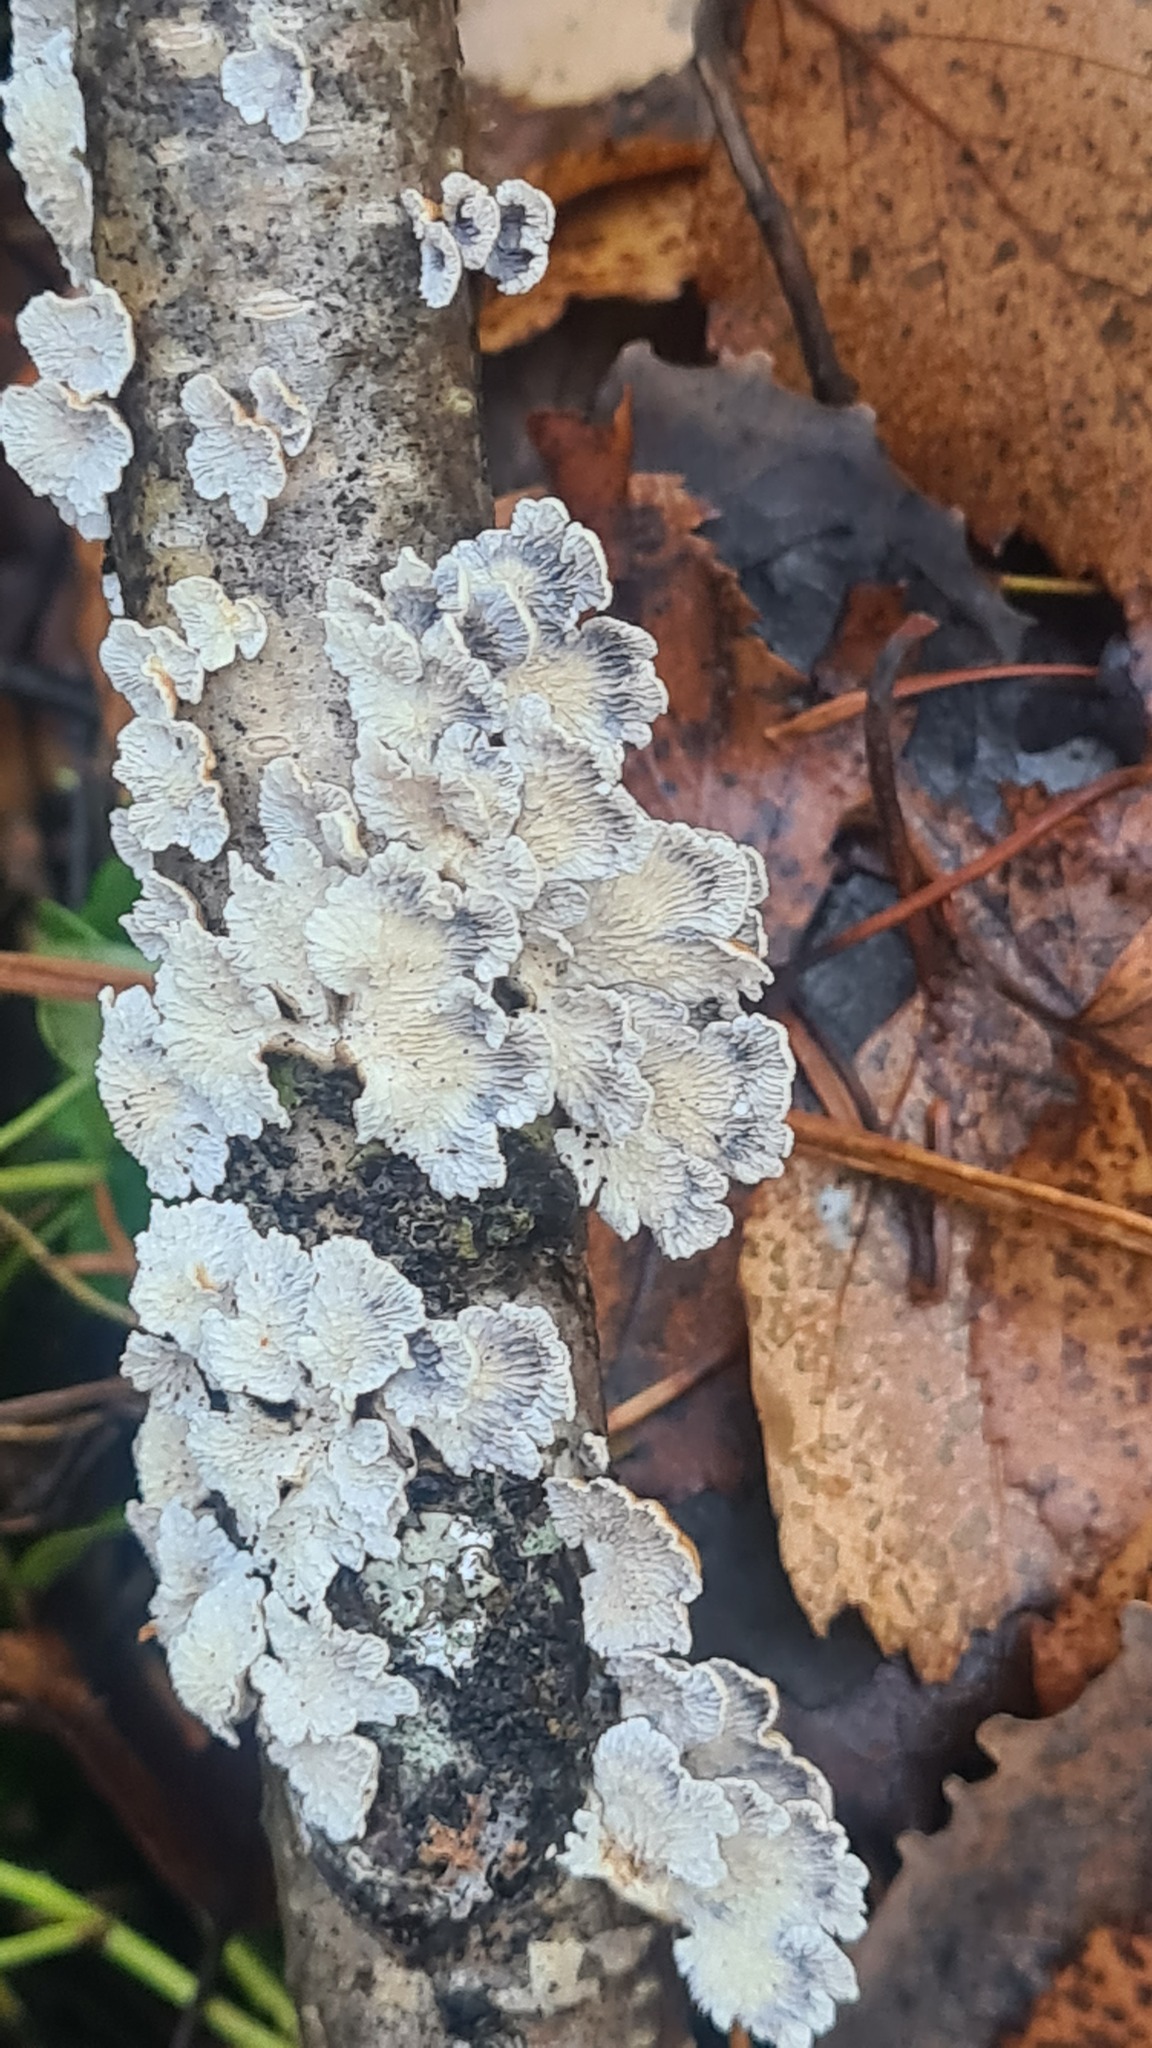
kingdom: Fungi
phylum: Basidiomycota
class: Agaricomycetes
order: Amylocorticiales
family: Amylocorticiaceae
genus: Plicaturopsis
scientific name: Plicaturopsis crispa
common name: Crimped gill
